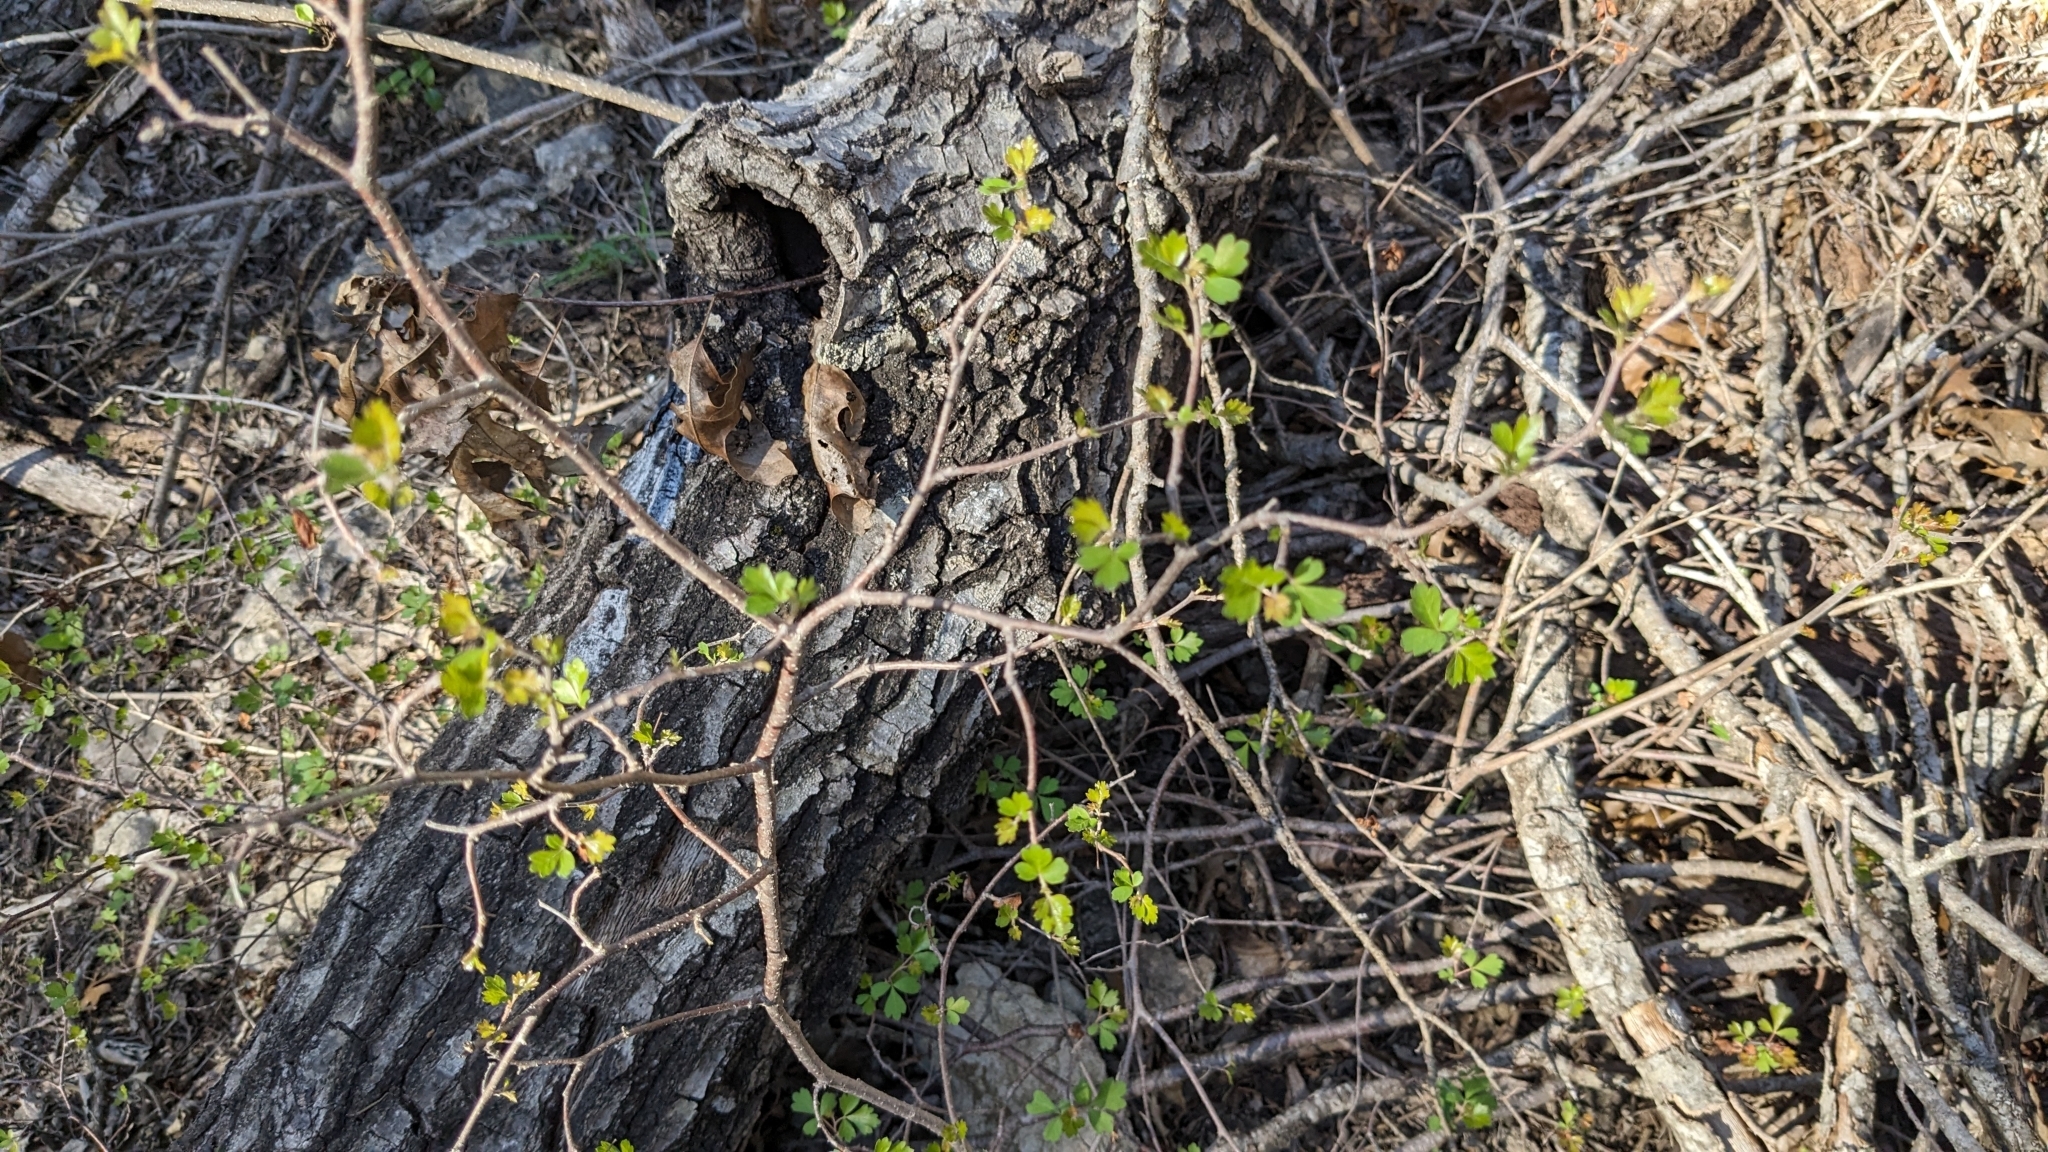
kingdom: Plantae
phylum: Tracheophyta
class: Magnoliopsida
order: Sapindales
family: Anacardiaceae
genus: Rhus
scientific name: Rhus trilobata
